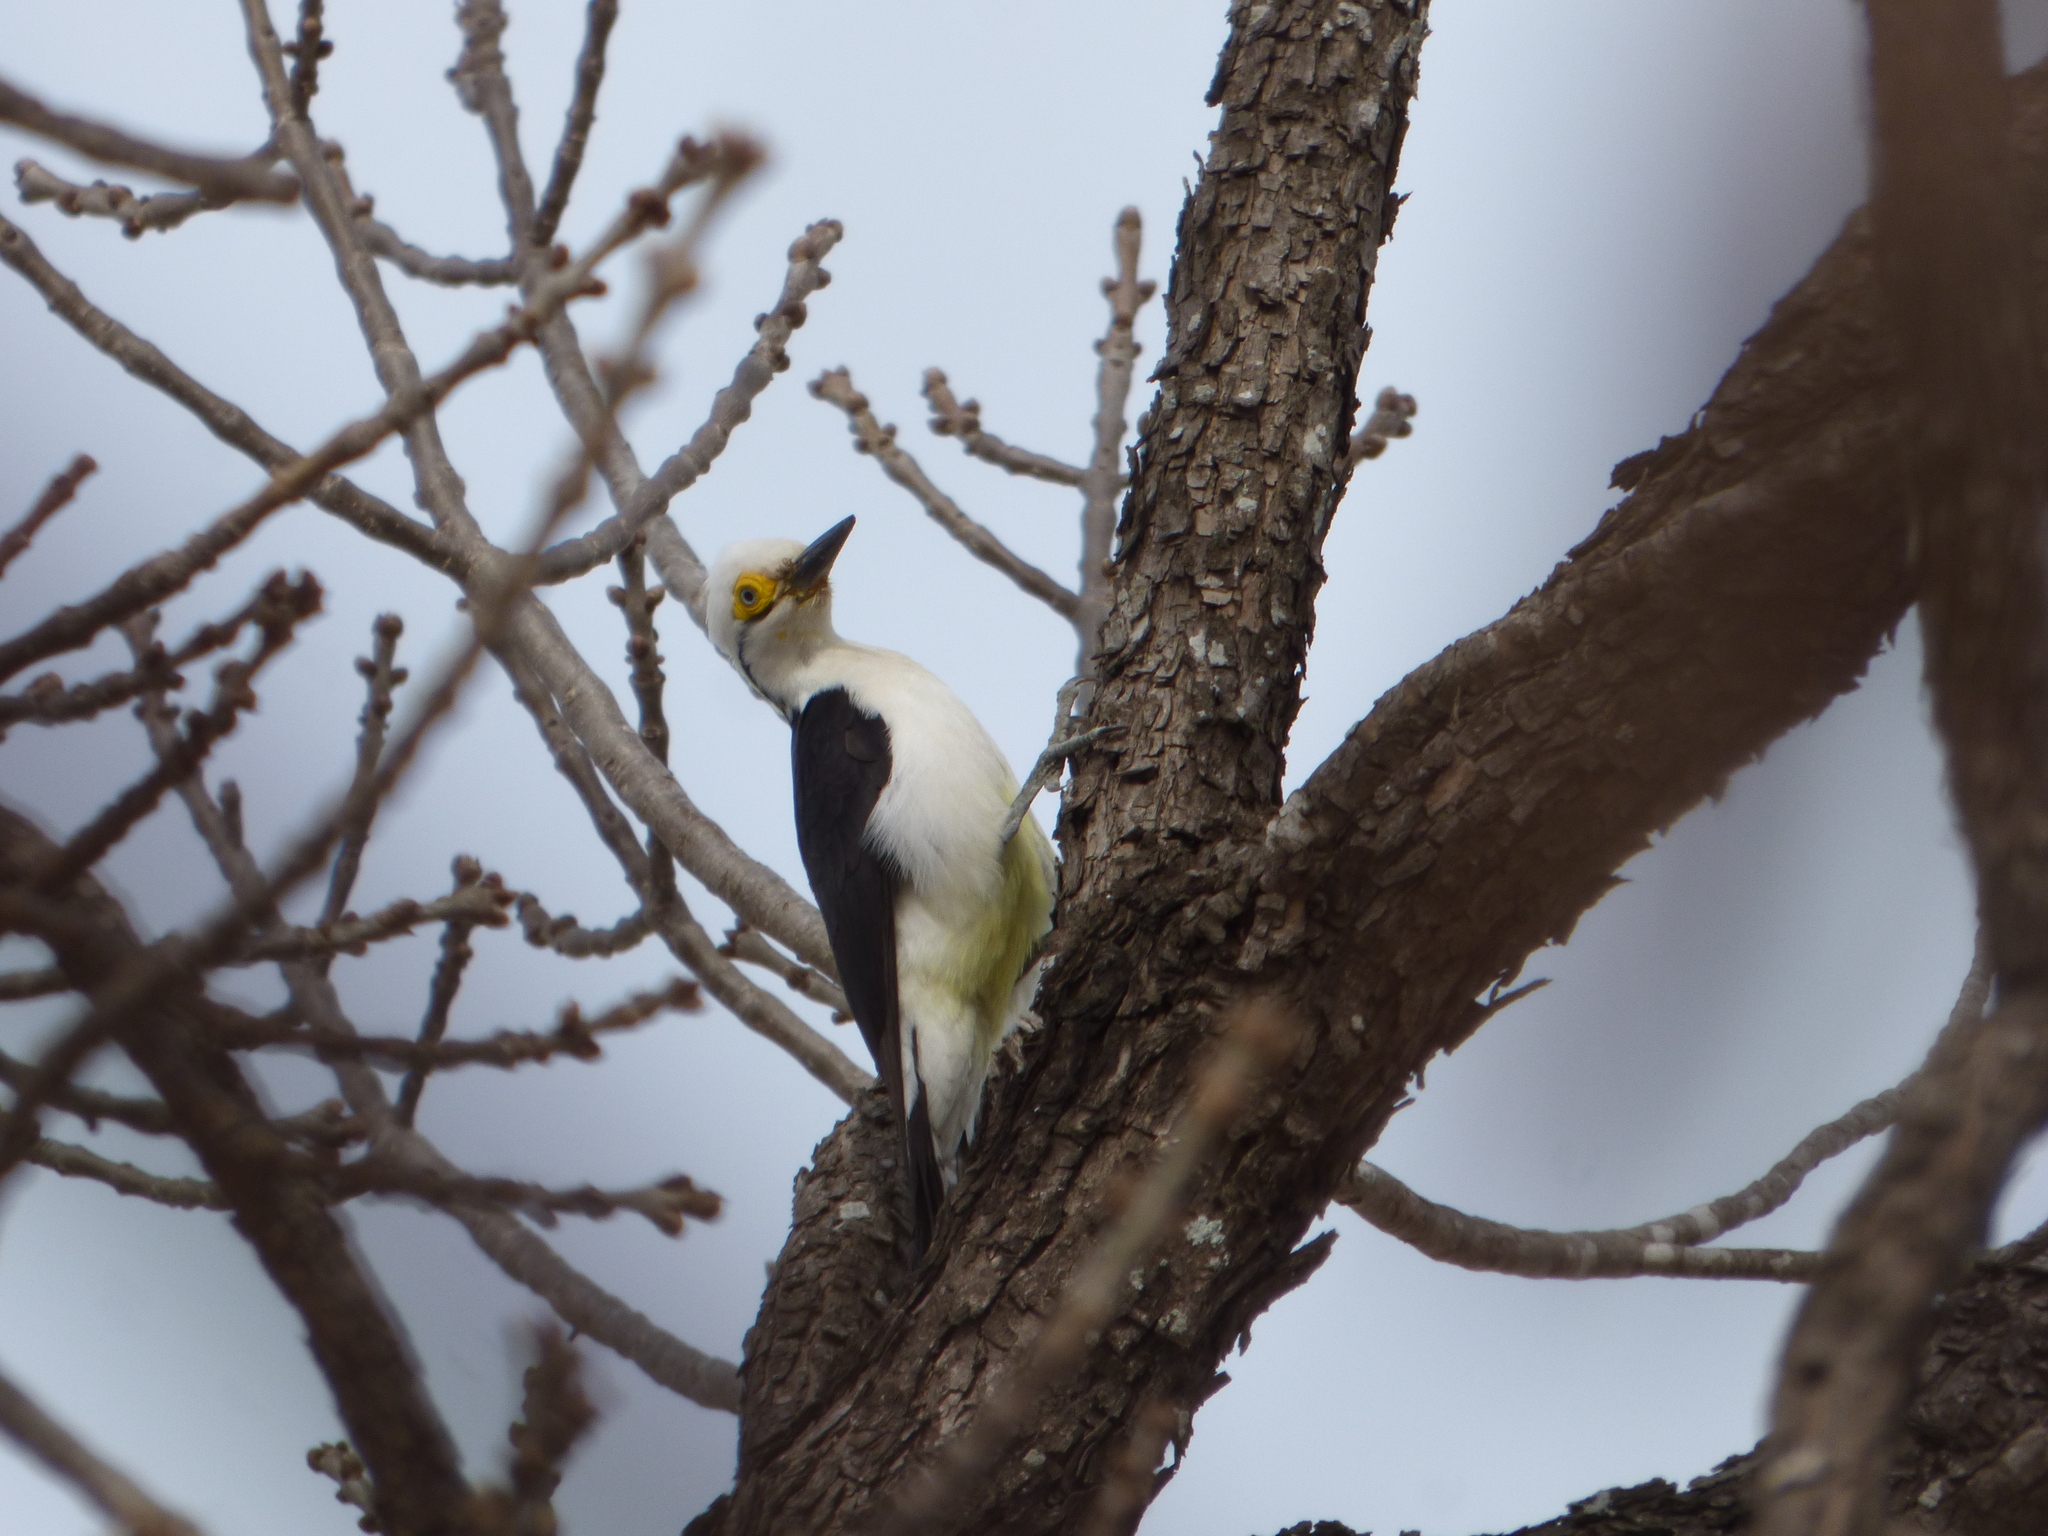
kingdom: Animalia
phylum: Chordata
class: Aves
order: Piciformes
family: Picidae
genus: Melanerpes
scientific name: Melanerpes candidus
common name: White woodpecker
